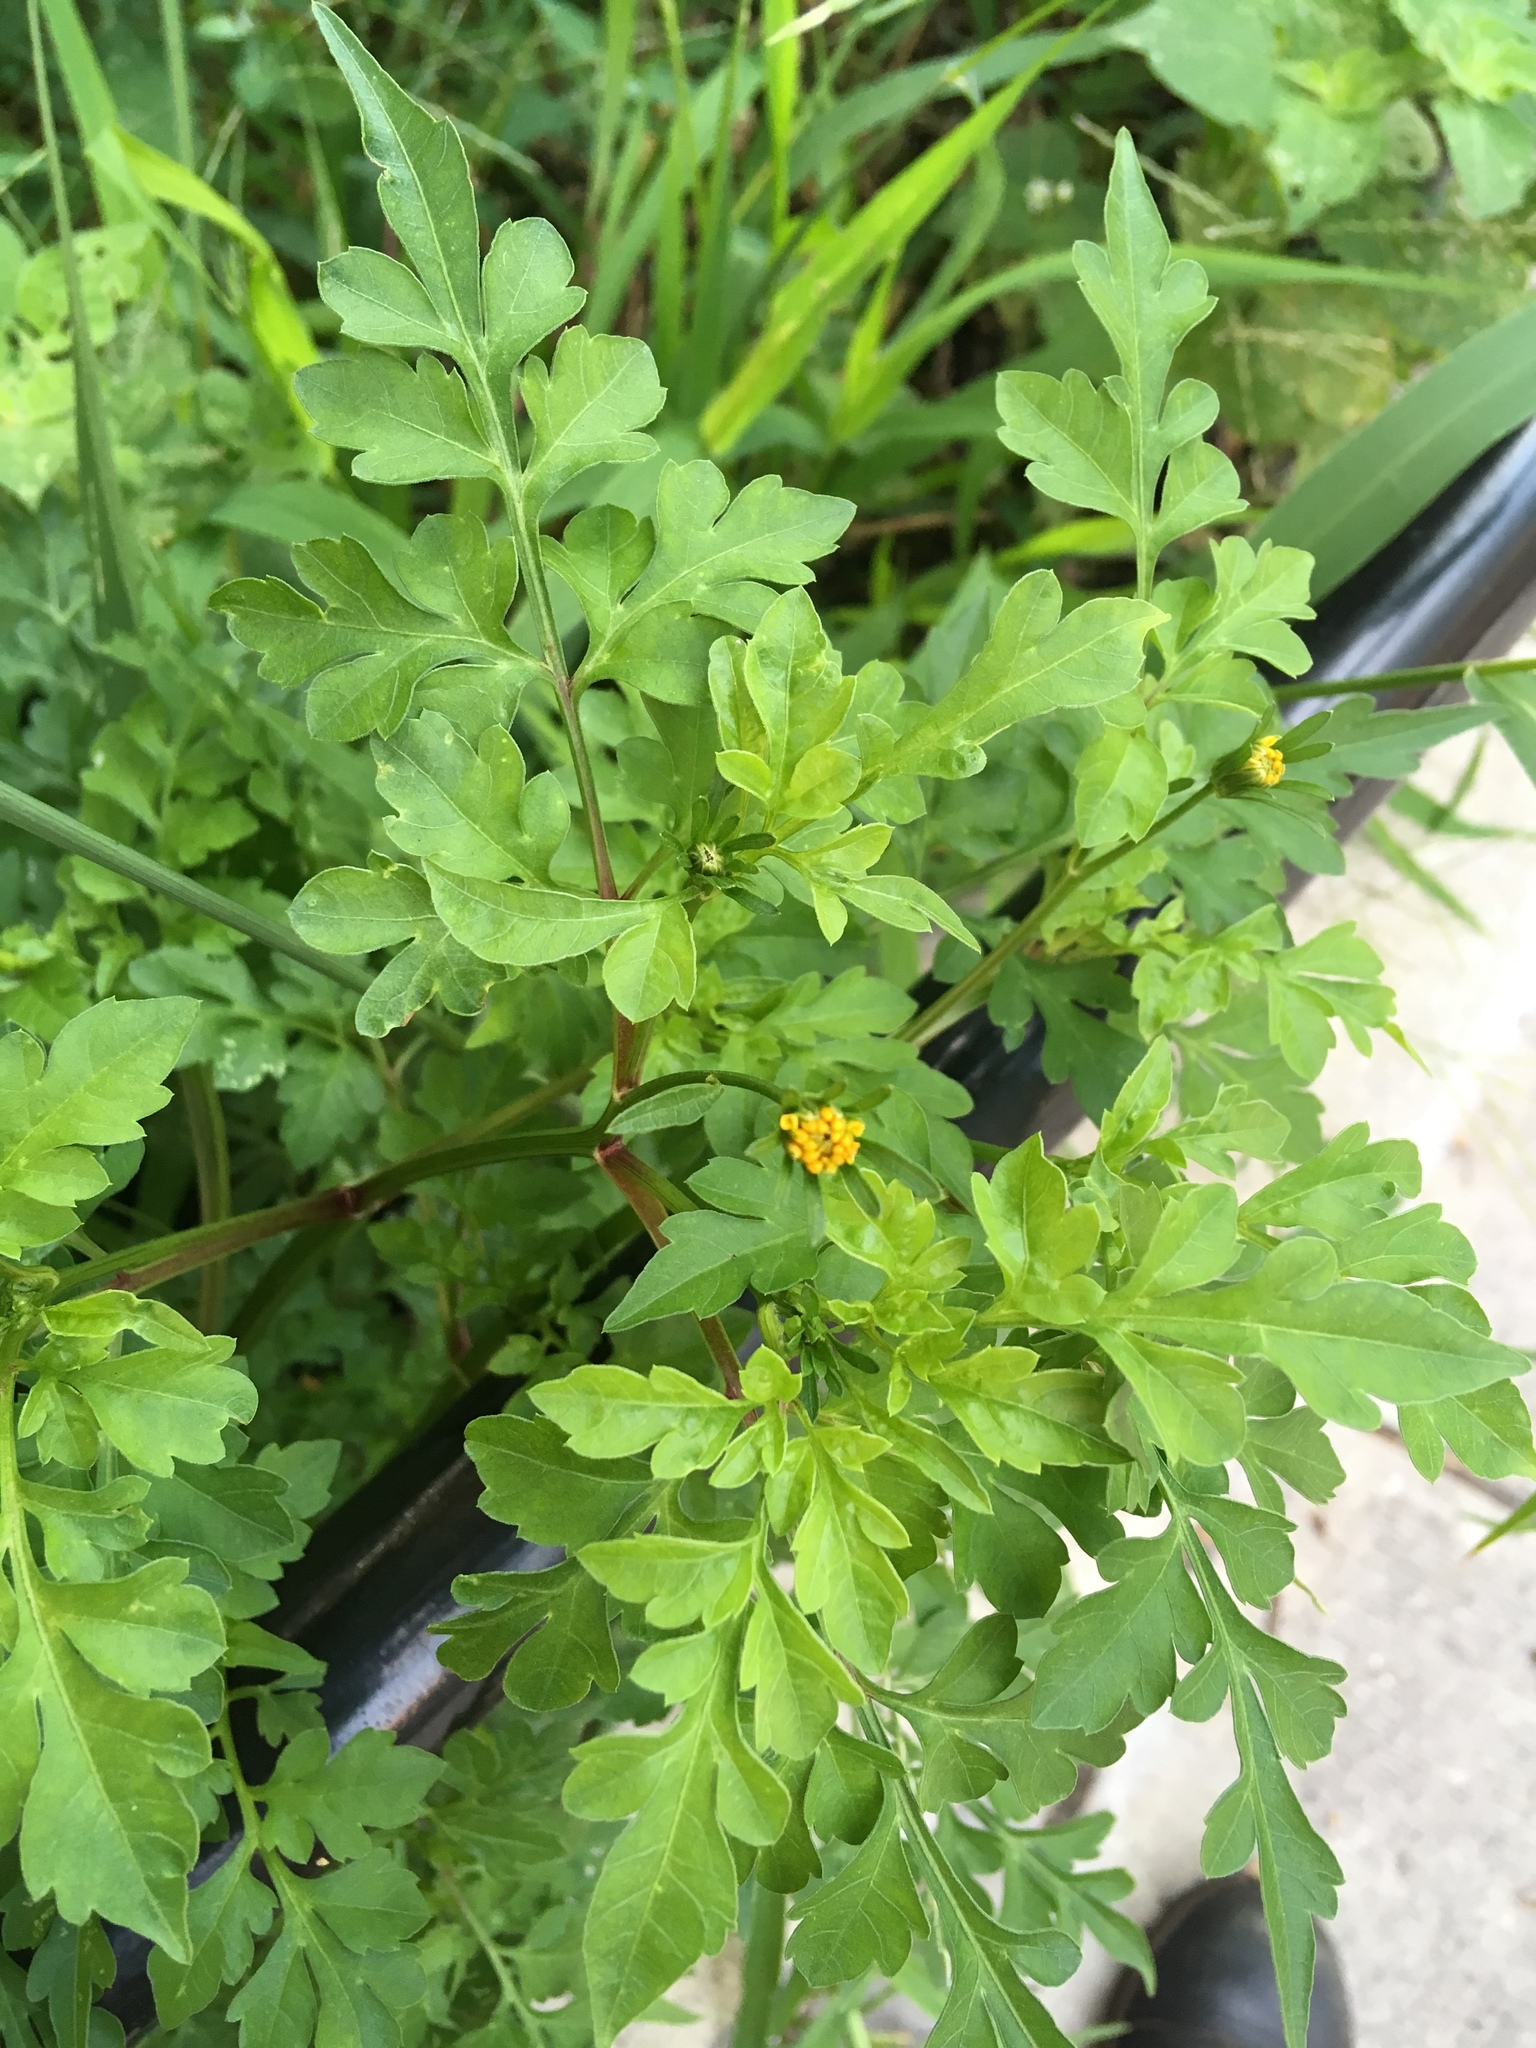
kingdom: Plantae
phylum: Tracheophyta
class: Magnoliopsida
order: Asterales
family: Asteraceae
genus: Bidens
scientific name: Bidens bipinnata
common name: Spanish-needles
